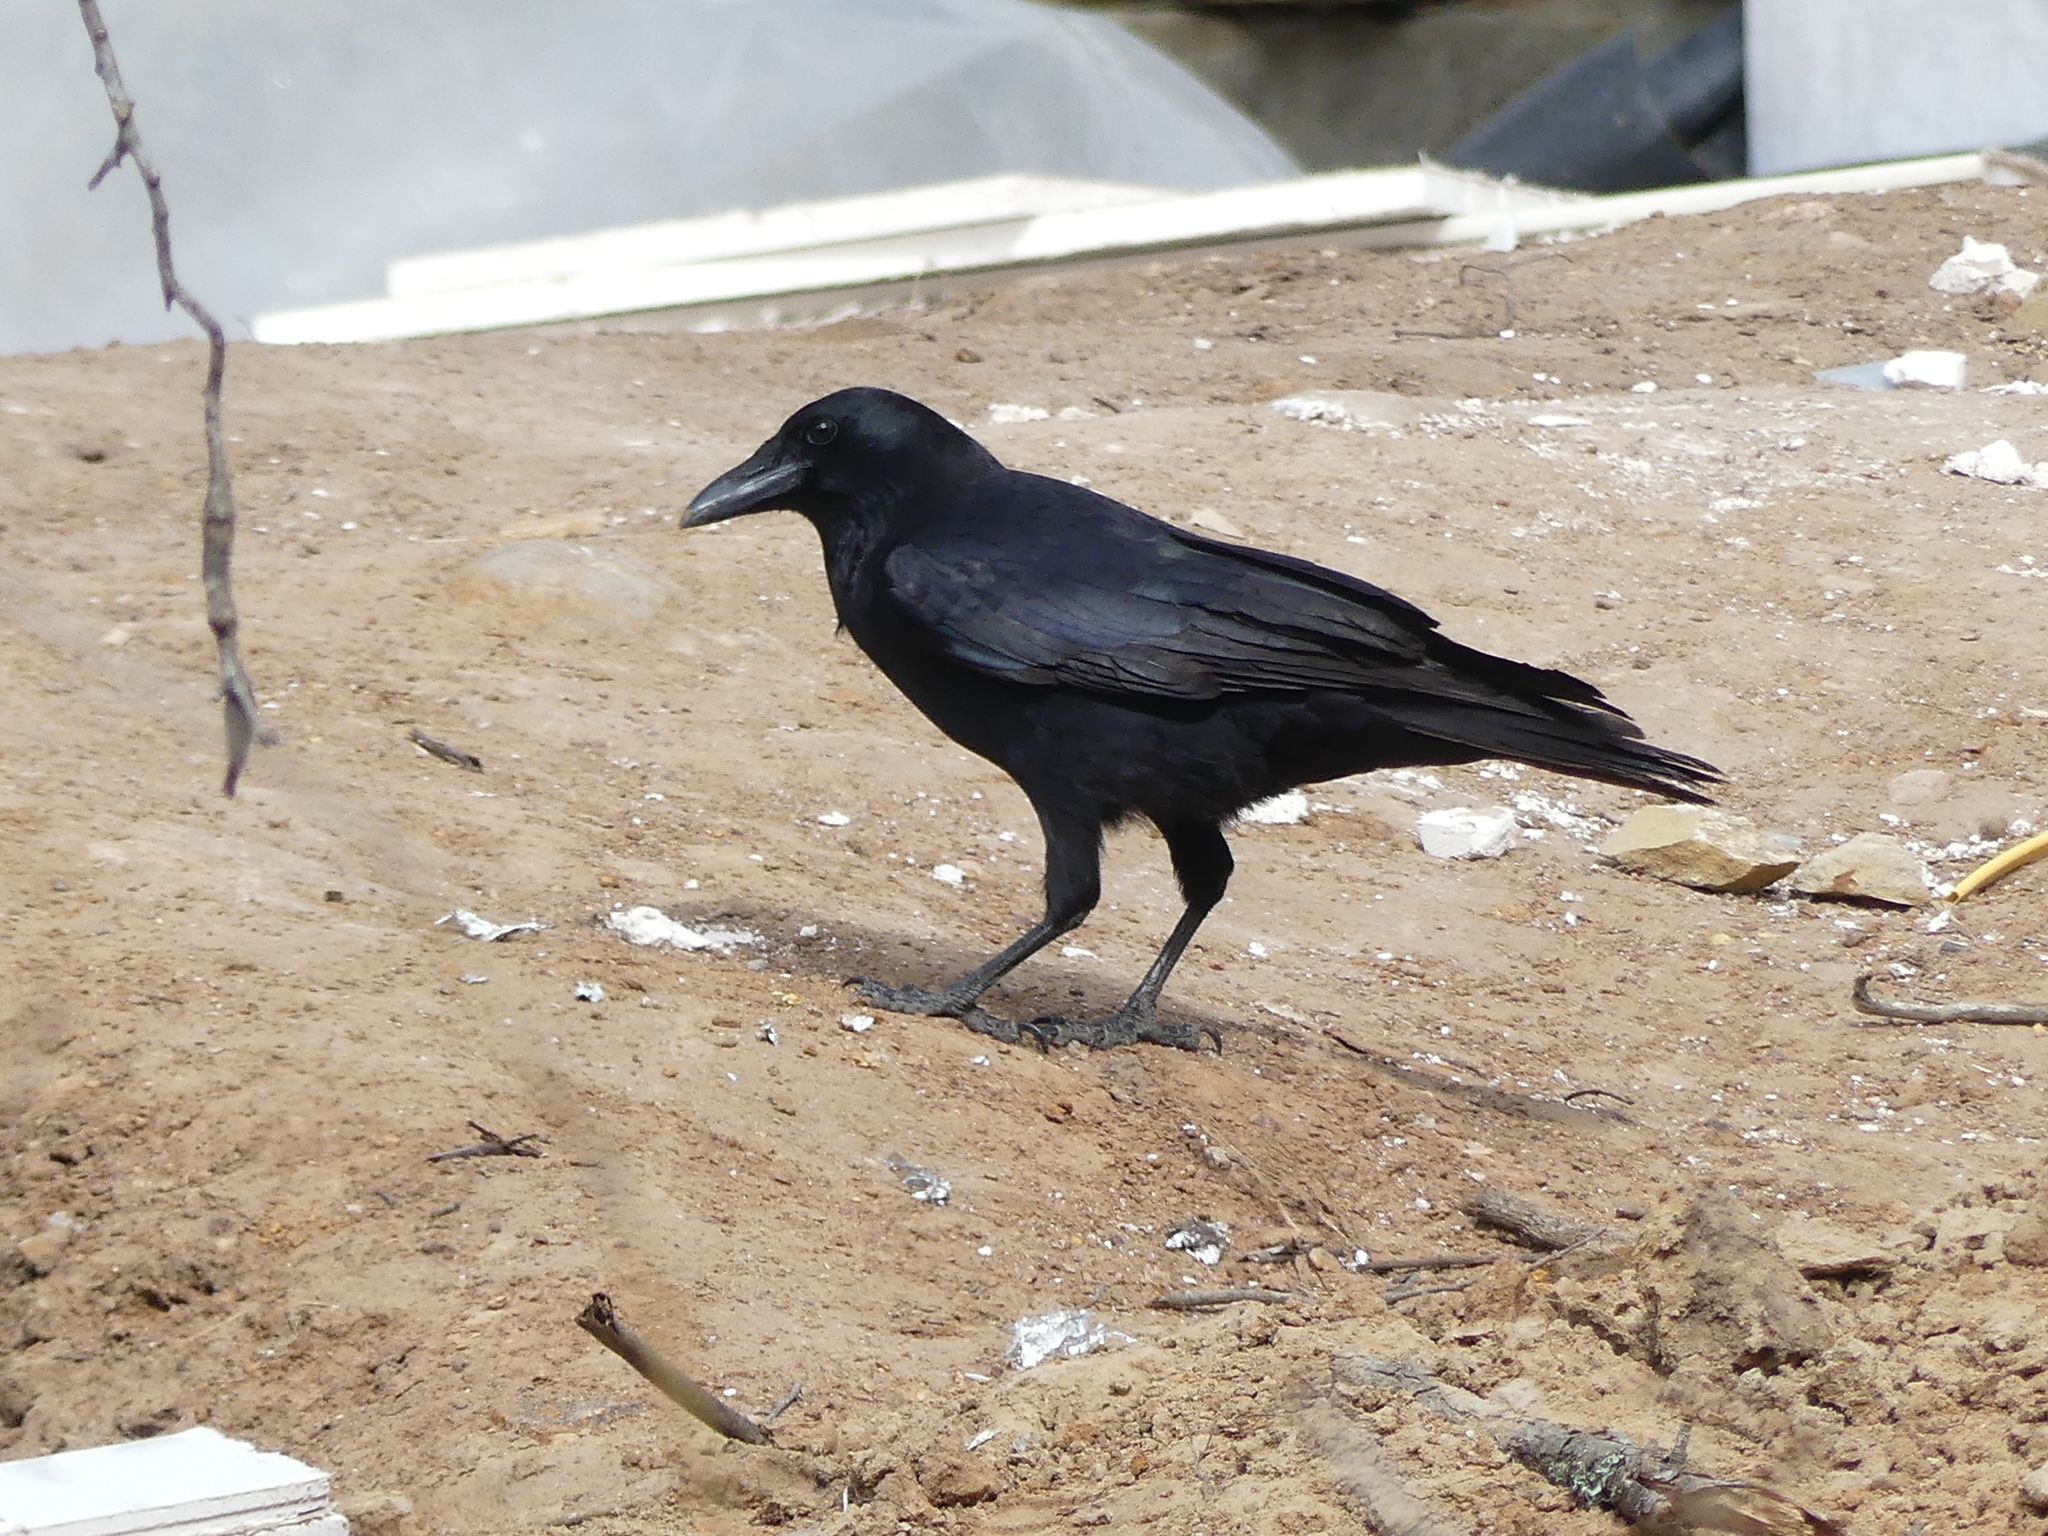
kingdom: Animalia
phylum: Chordata
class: Aves
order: Passeriformes
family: Corvidae
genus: Corvus
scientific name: Corvus brachyrhynchos
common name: American crow
